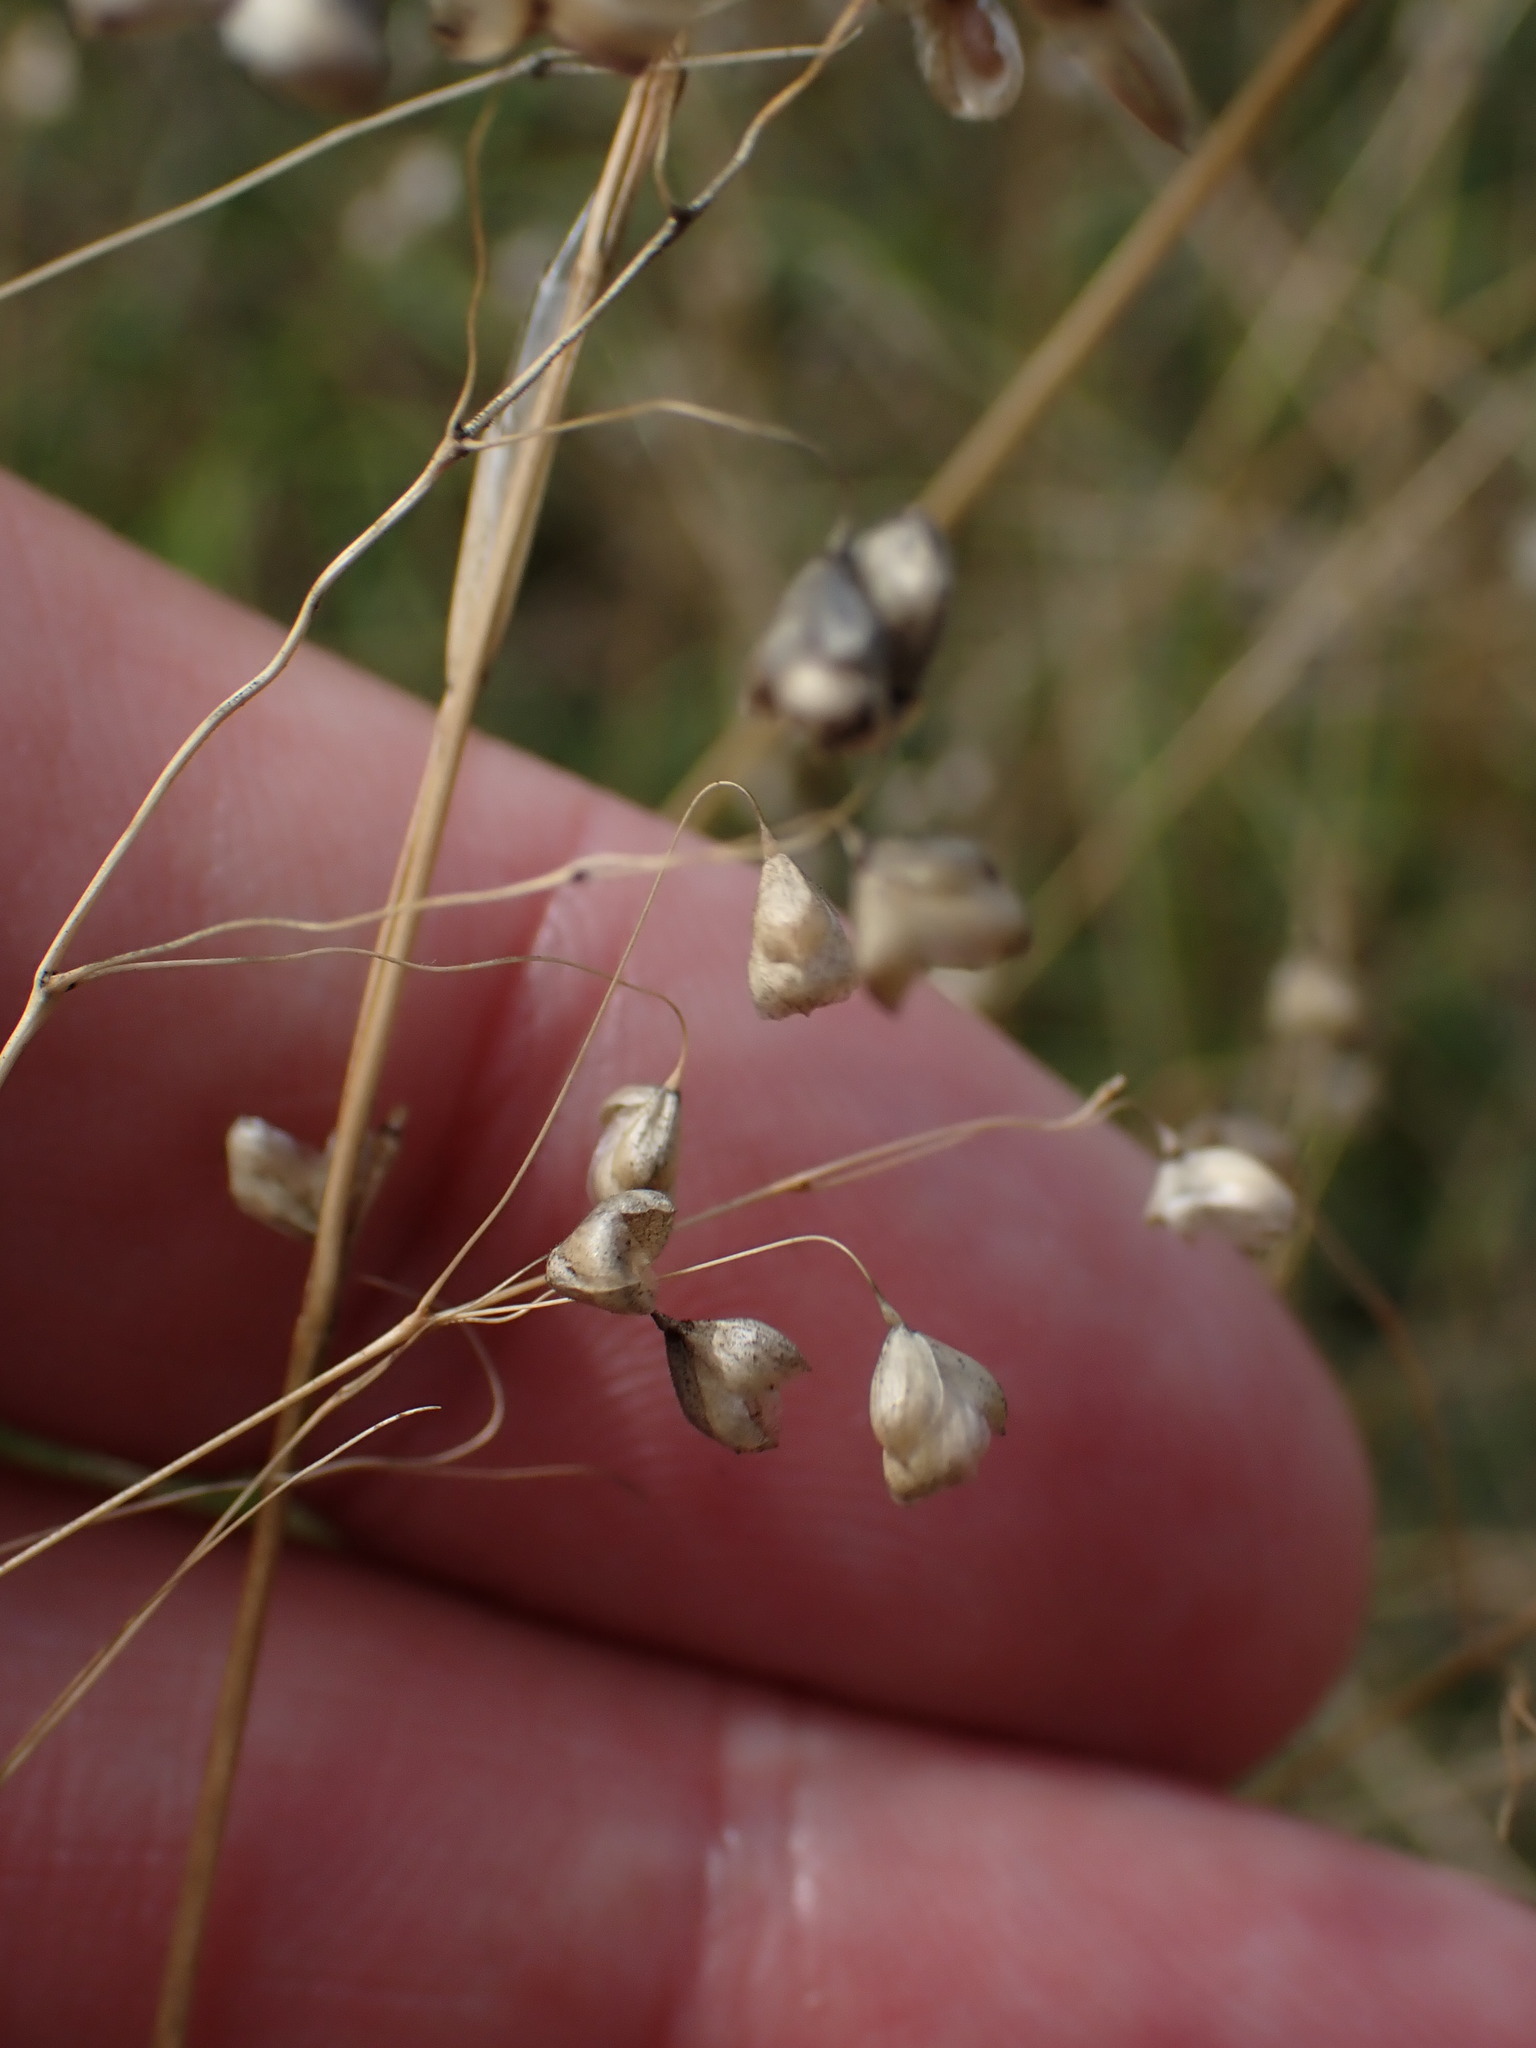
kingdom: Plantae
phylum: Tracheophyta
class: Liliopsida
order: Poales
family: Poaceae
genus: Briza
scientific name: Briza media
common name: Quaking grass
